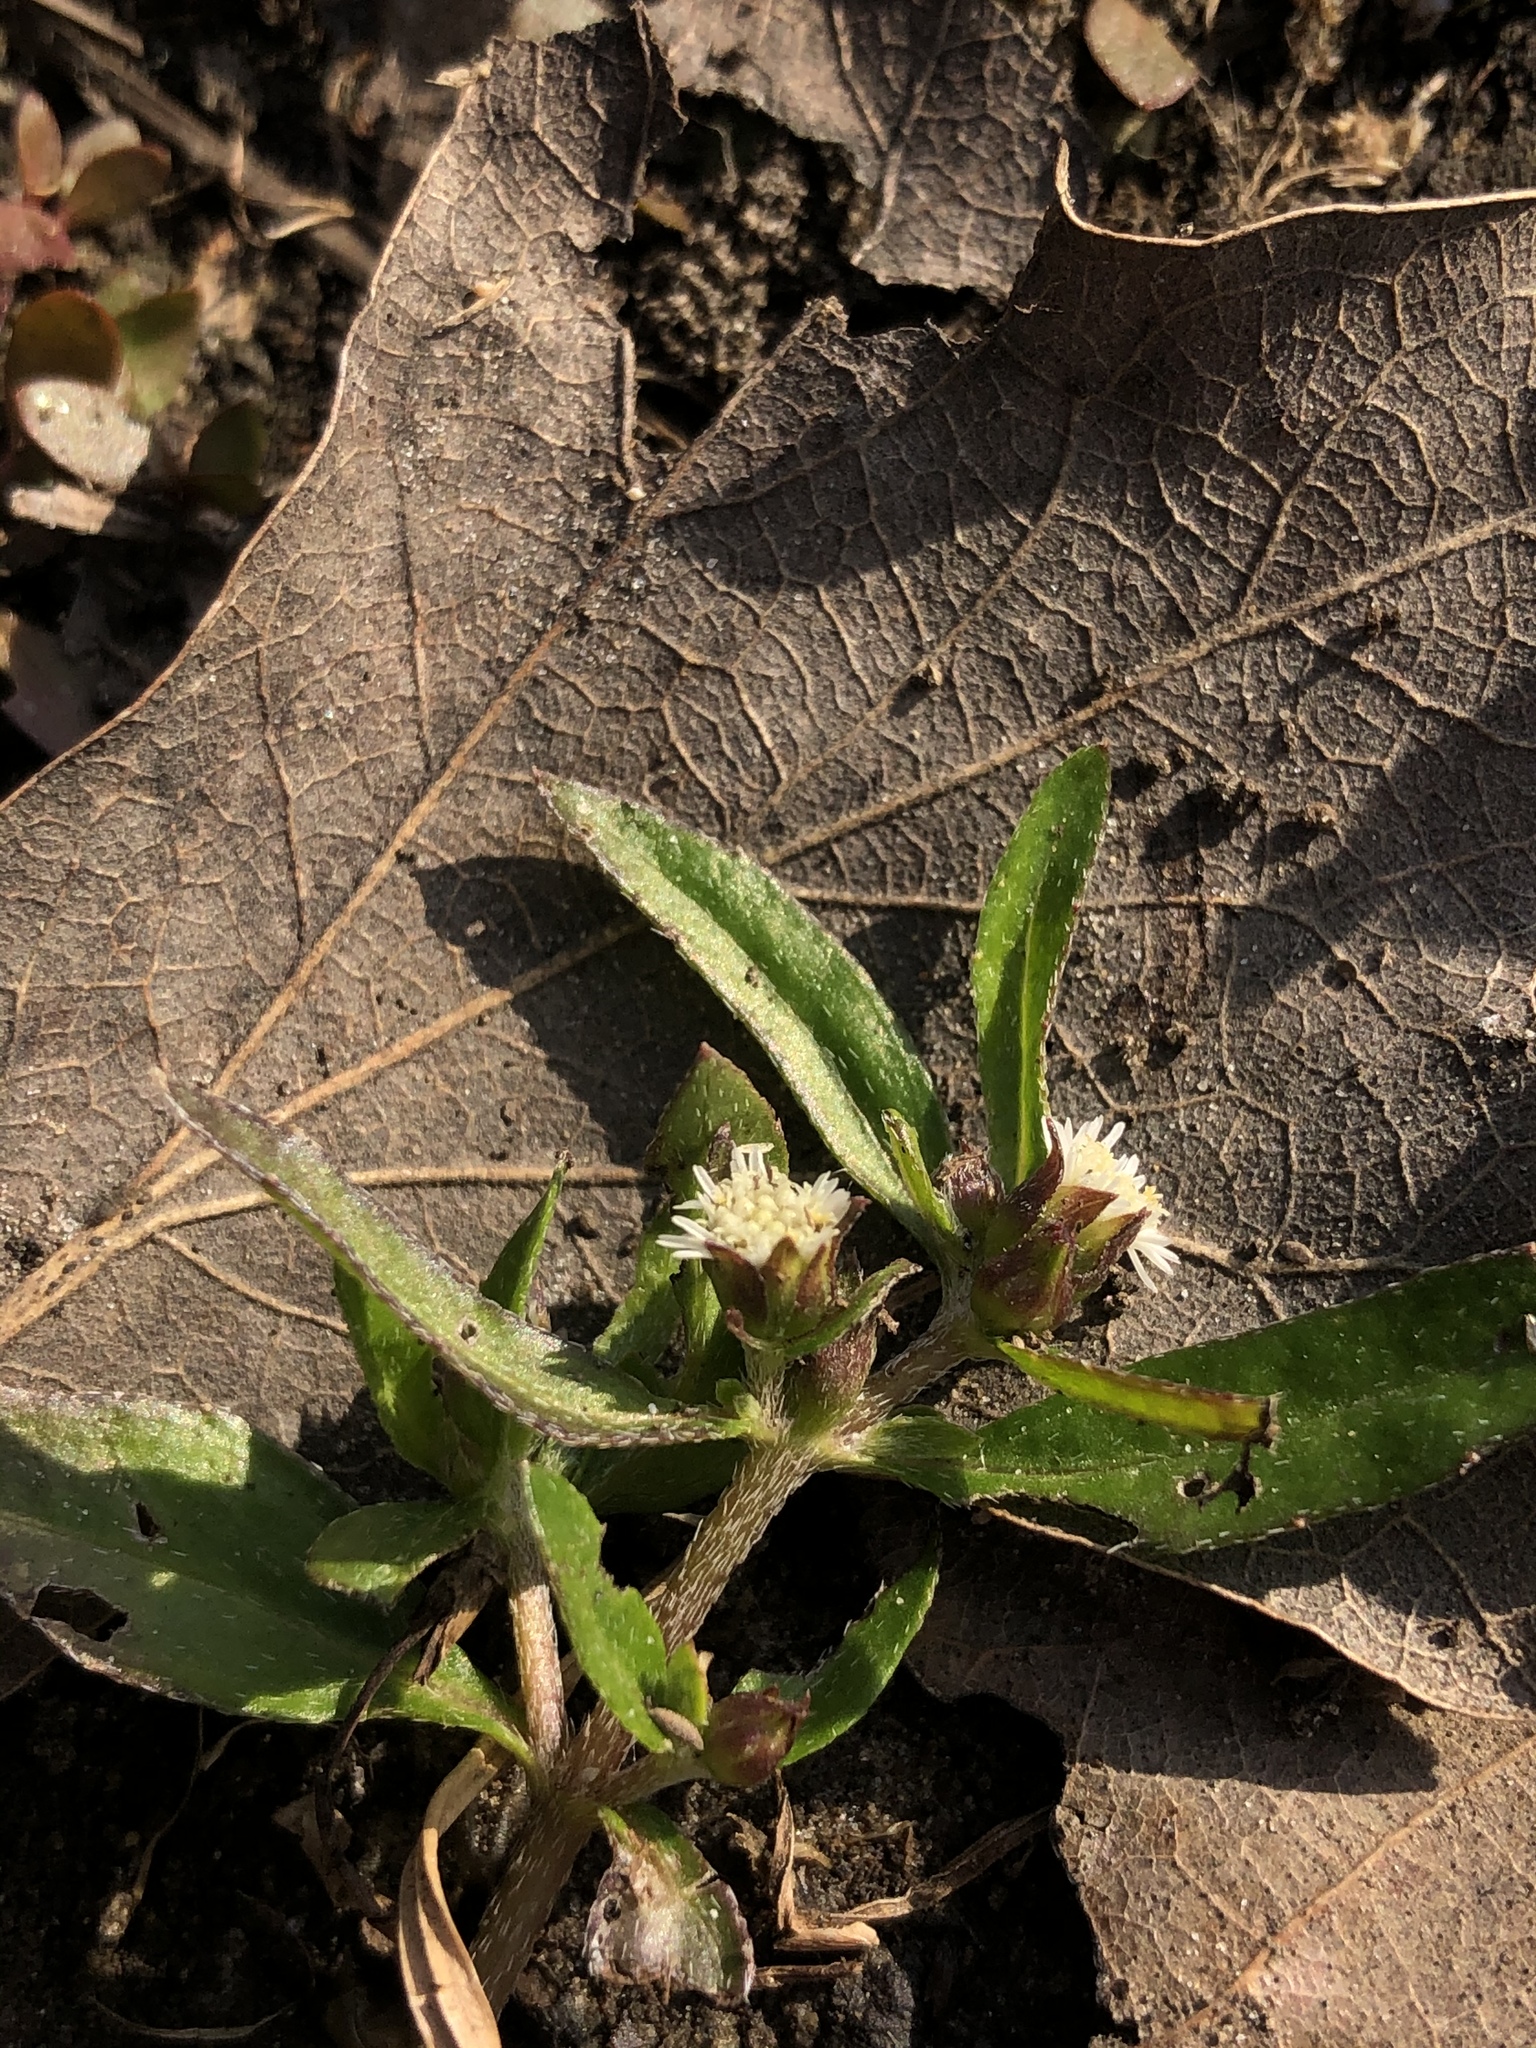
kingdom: Plantae
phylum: Tracheophyta
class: Magnoliopsida
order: Asterales
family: Asteraceae
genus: Eclipta
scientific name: Eclipta prostrata
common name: False daisy
